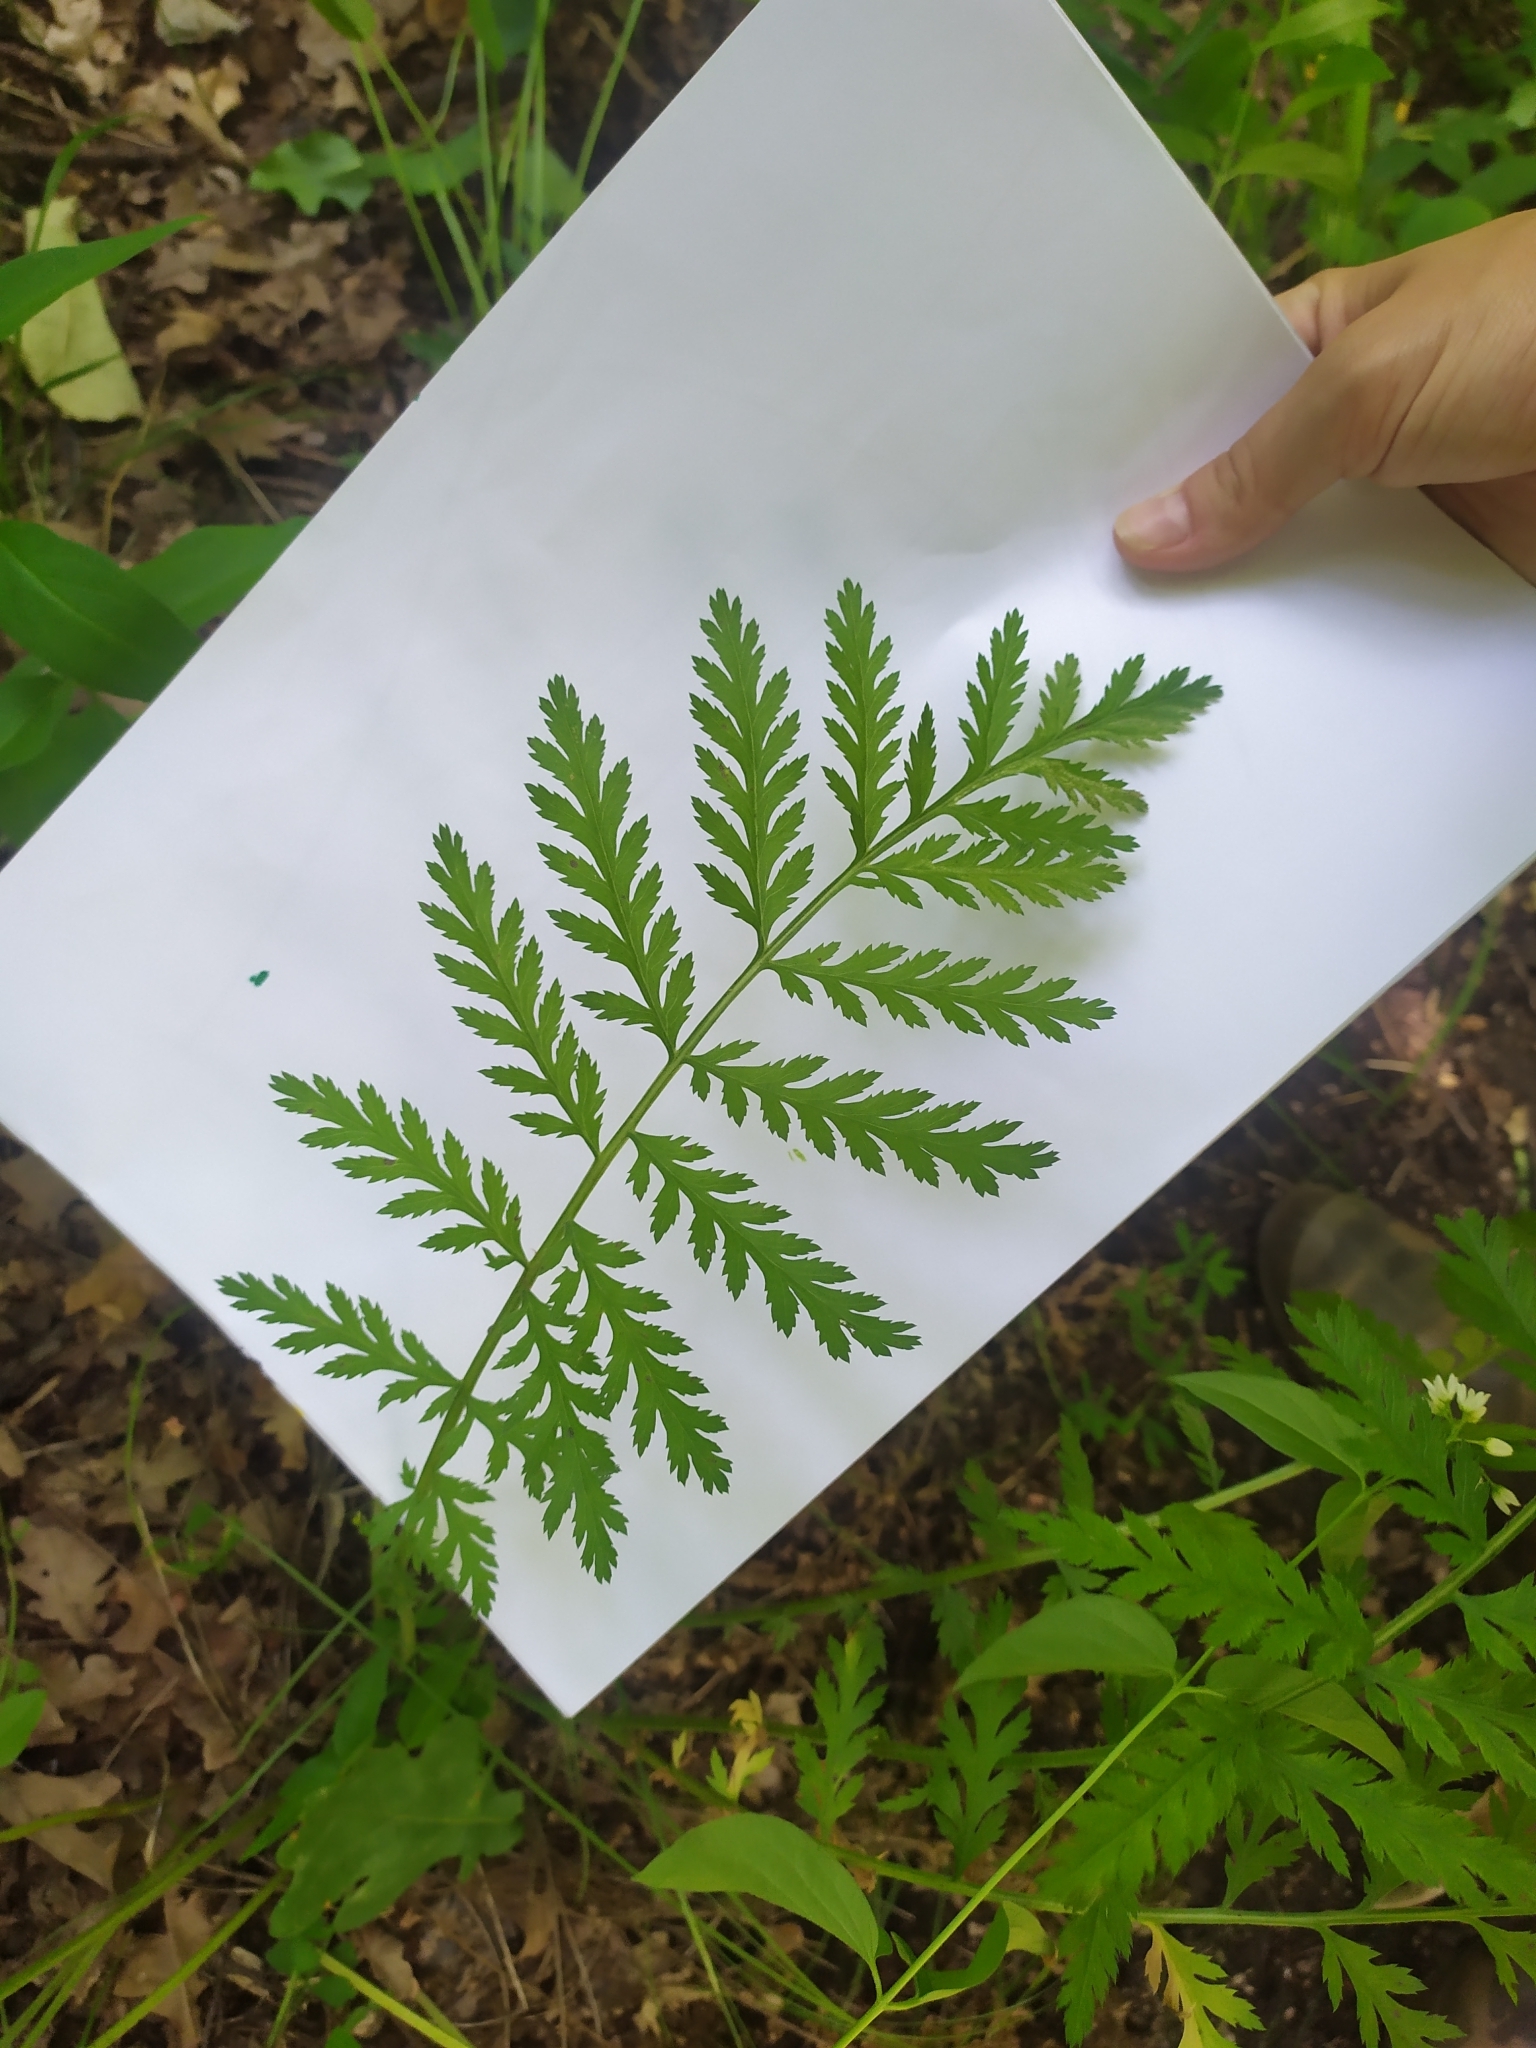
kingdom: Plantae
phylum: Tracheophyta
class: Magnoliopsida
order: Asterales
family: Asteraceae
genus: Tanacetum
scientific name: Tanacetum corymbosum
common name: Scentless feverfew
